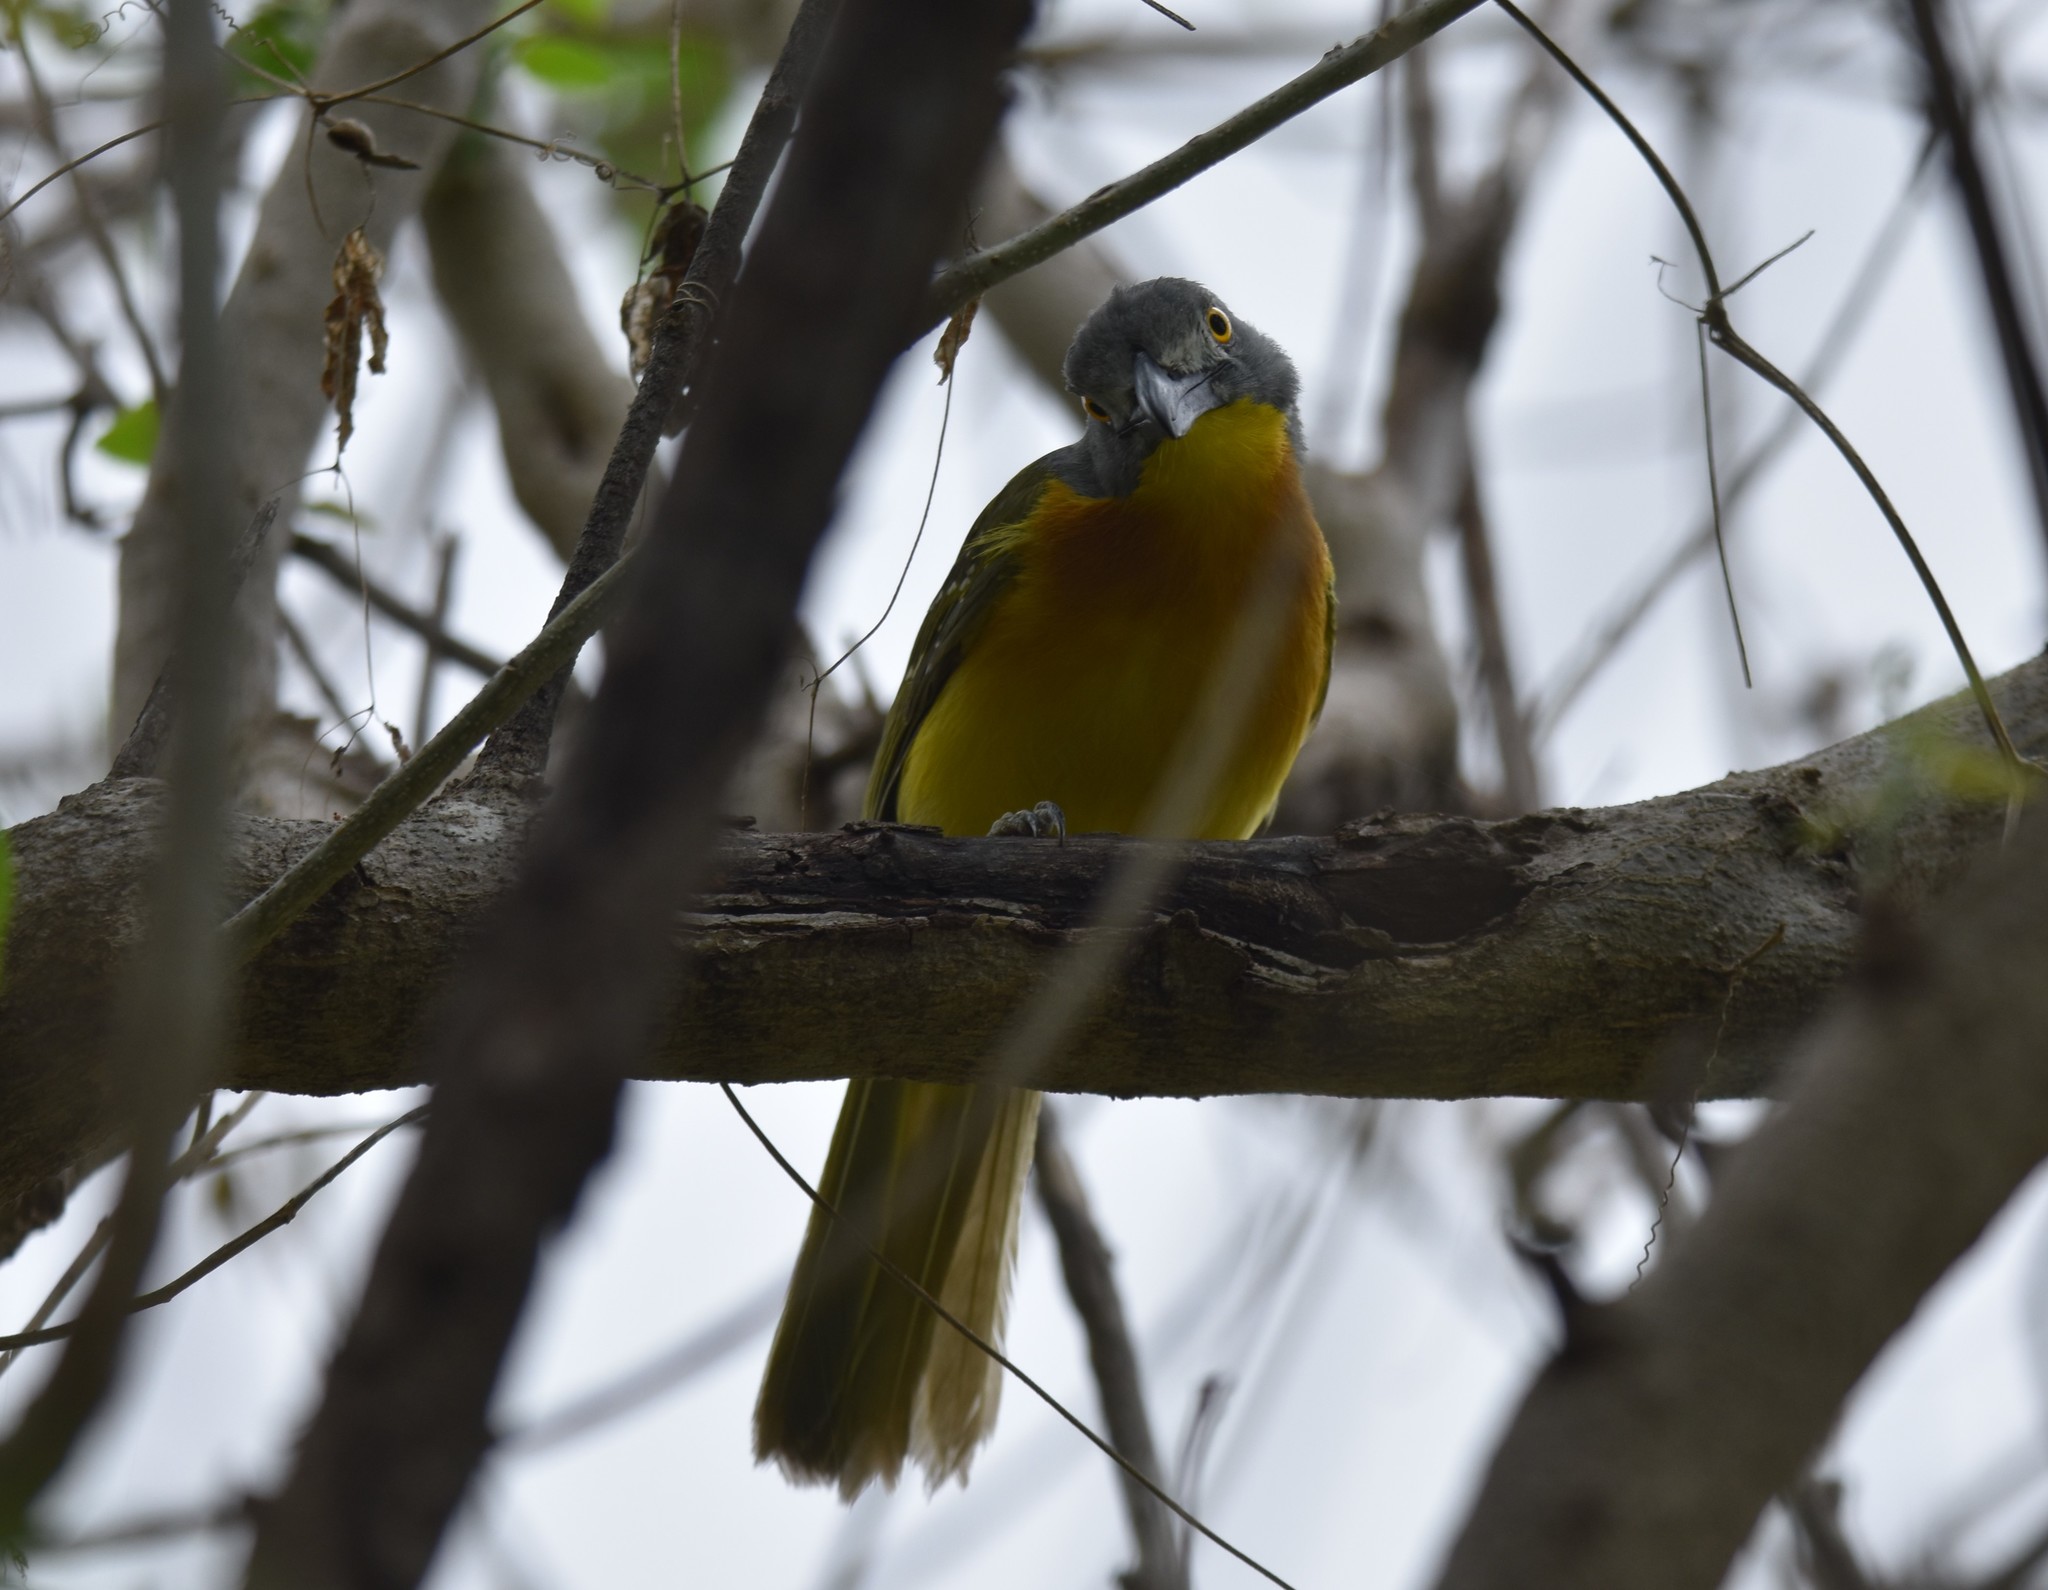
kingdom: Animalia
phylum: Chordata
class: Aves
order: Passeriformes
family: Malaconotidae
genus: Malaconotus
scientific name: Malaconotus blanchoti
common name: Grey-headed bushshrike
